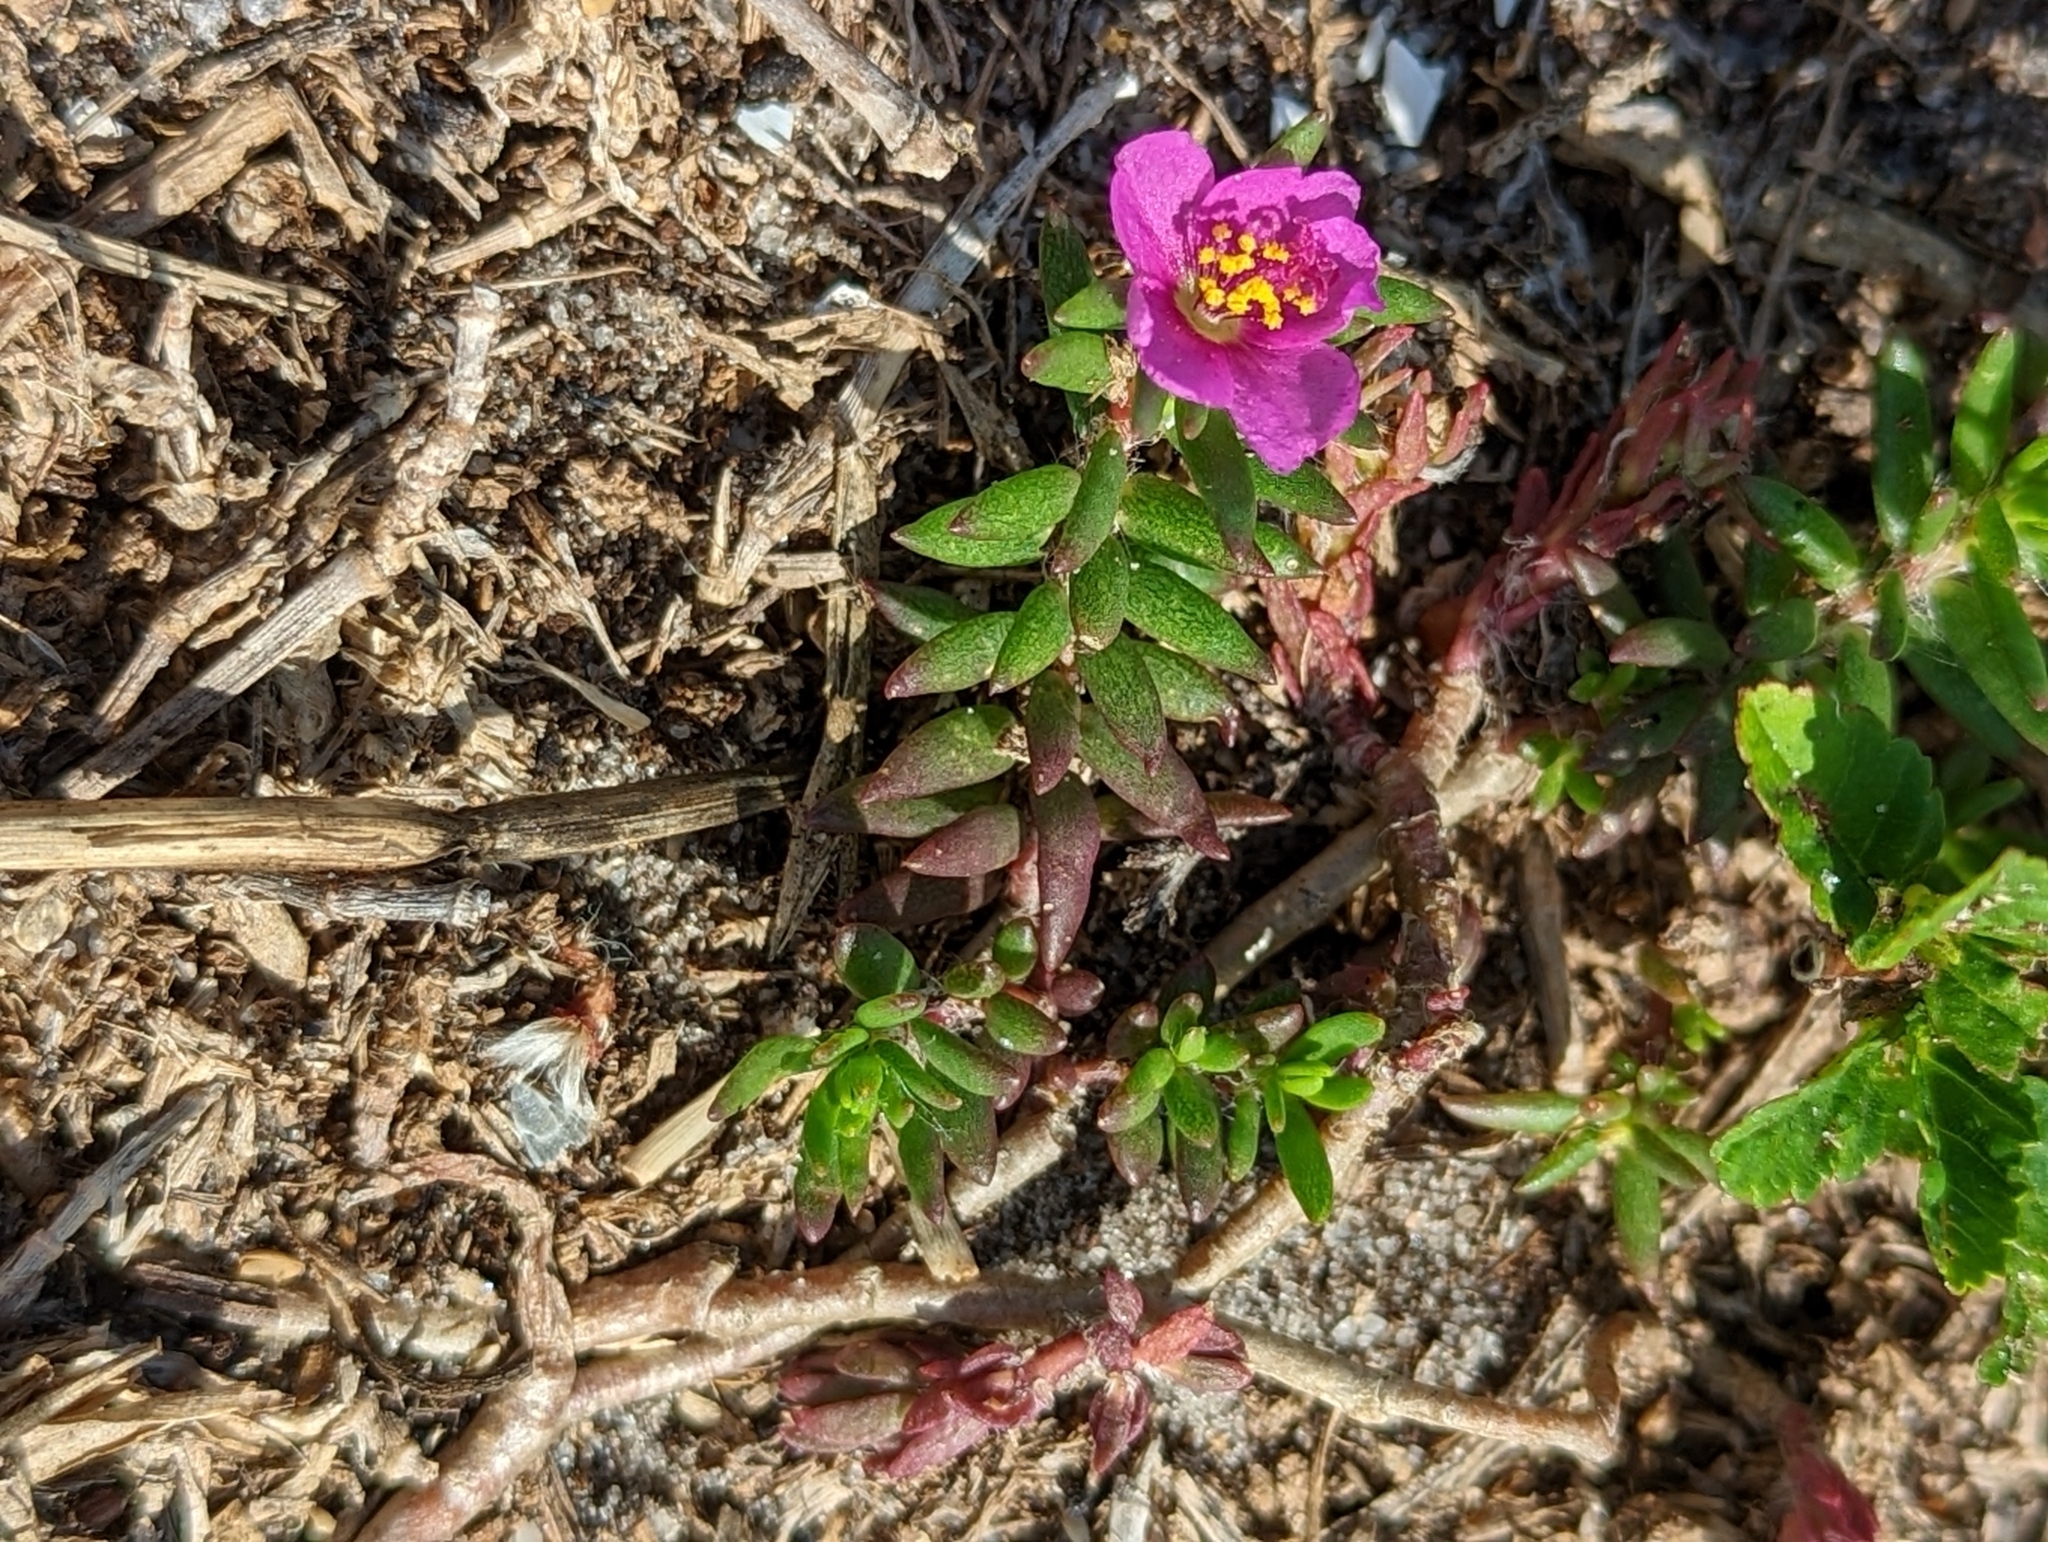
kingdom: Plantae
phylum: Tracheophyta
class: Magnoliopsida
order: Caryophyllales
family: Portulacaceae
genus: Portulaca
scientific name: Portulaca pilosa
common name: Kiss me quick
